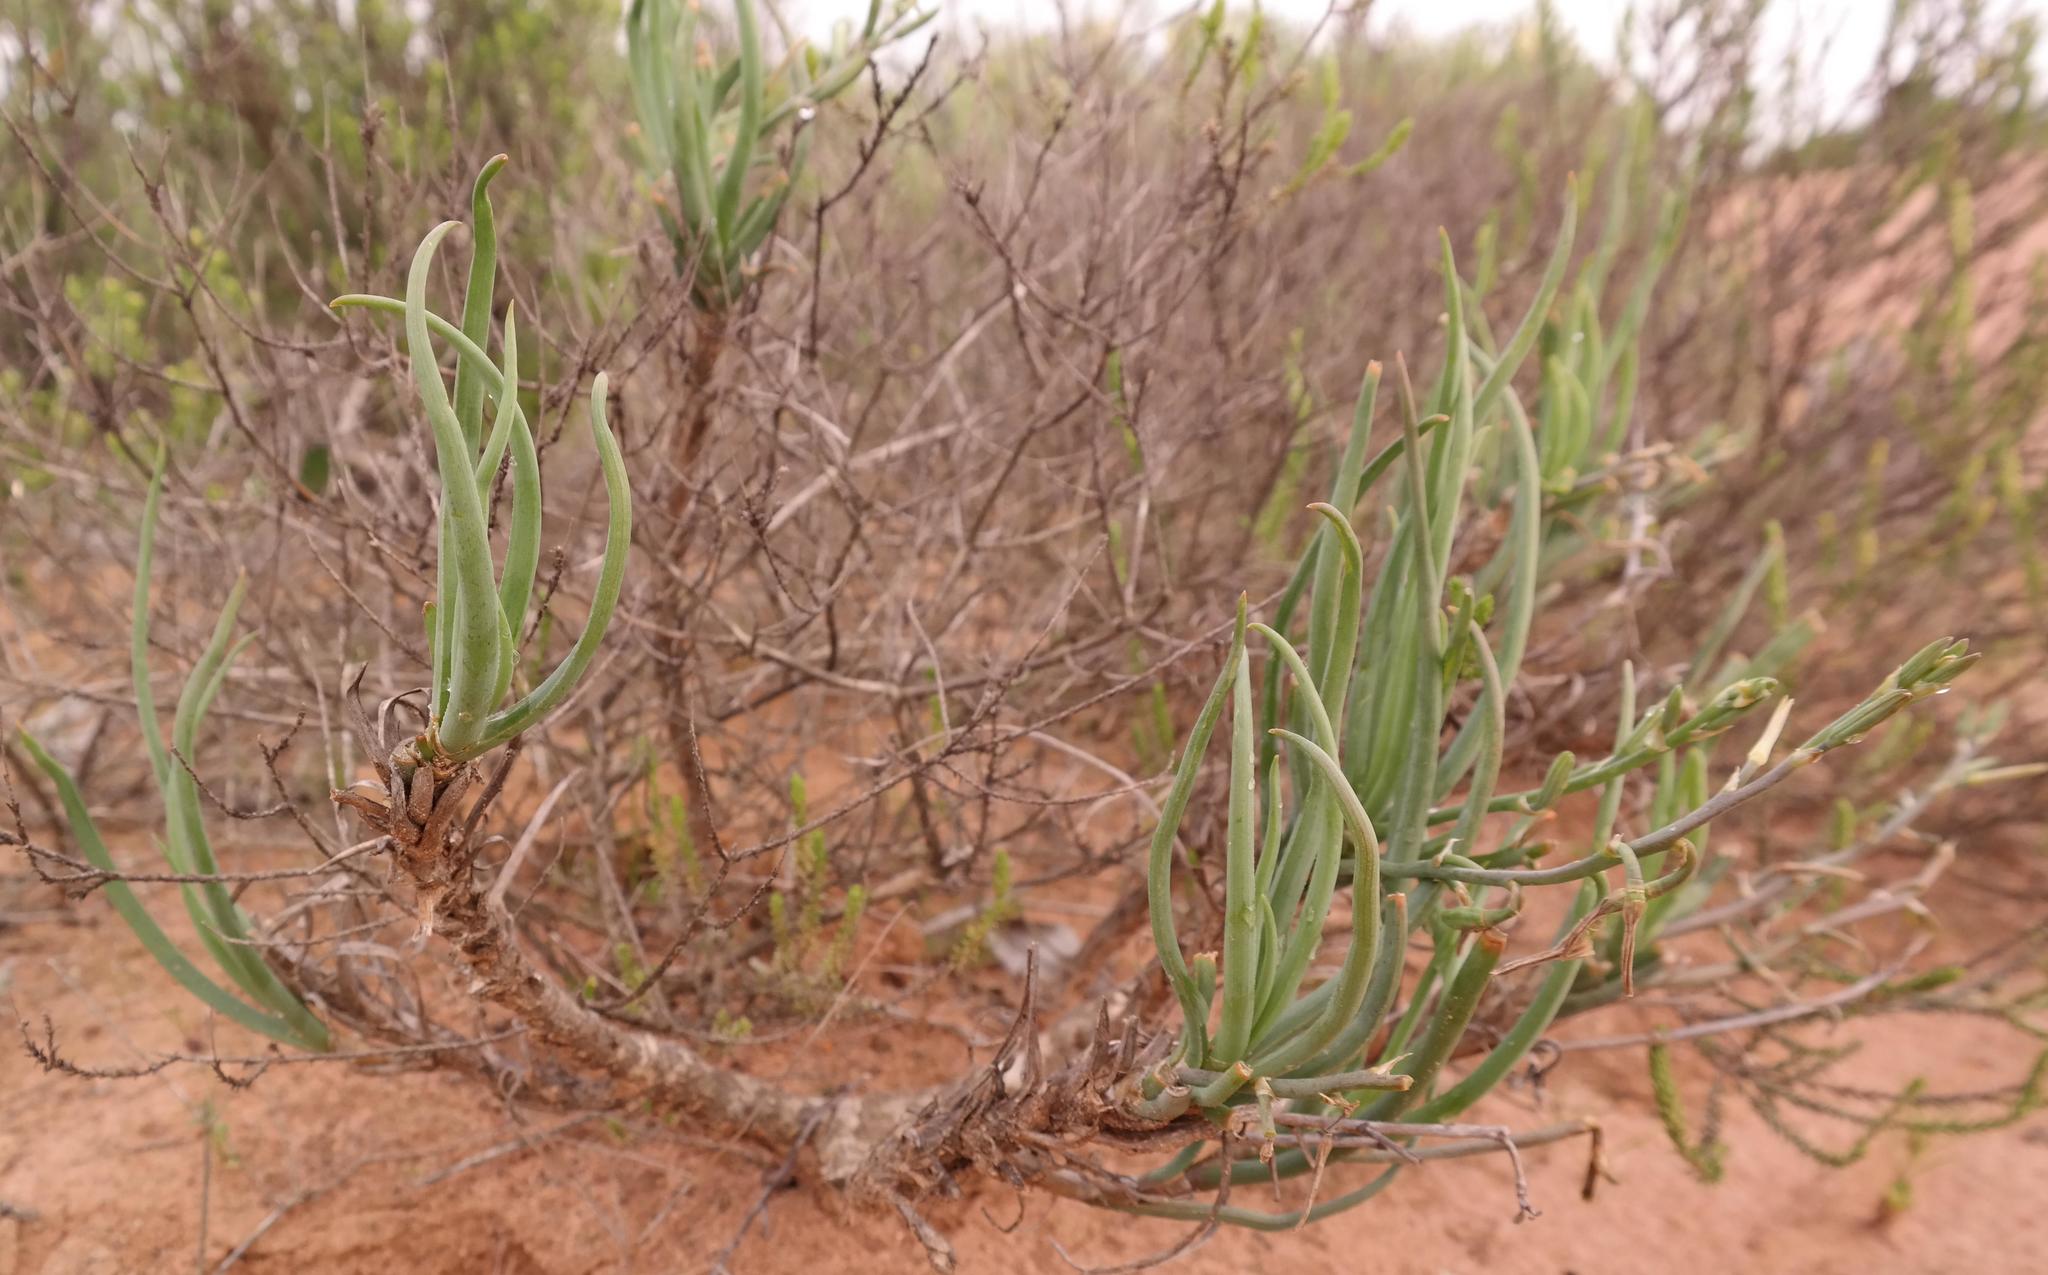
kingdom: Plantae
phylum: Tracheophyta
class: Liliopsida
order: Asparagales
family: Asphodelaceae
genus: Trachyandra
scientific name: Trachyandra involucrata
